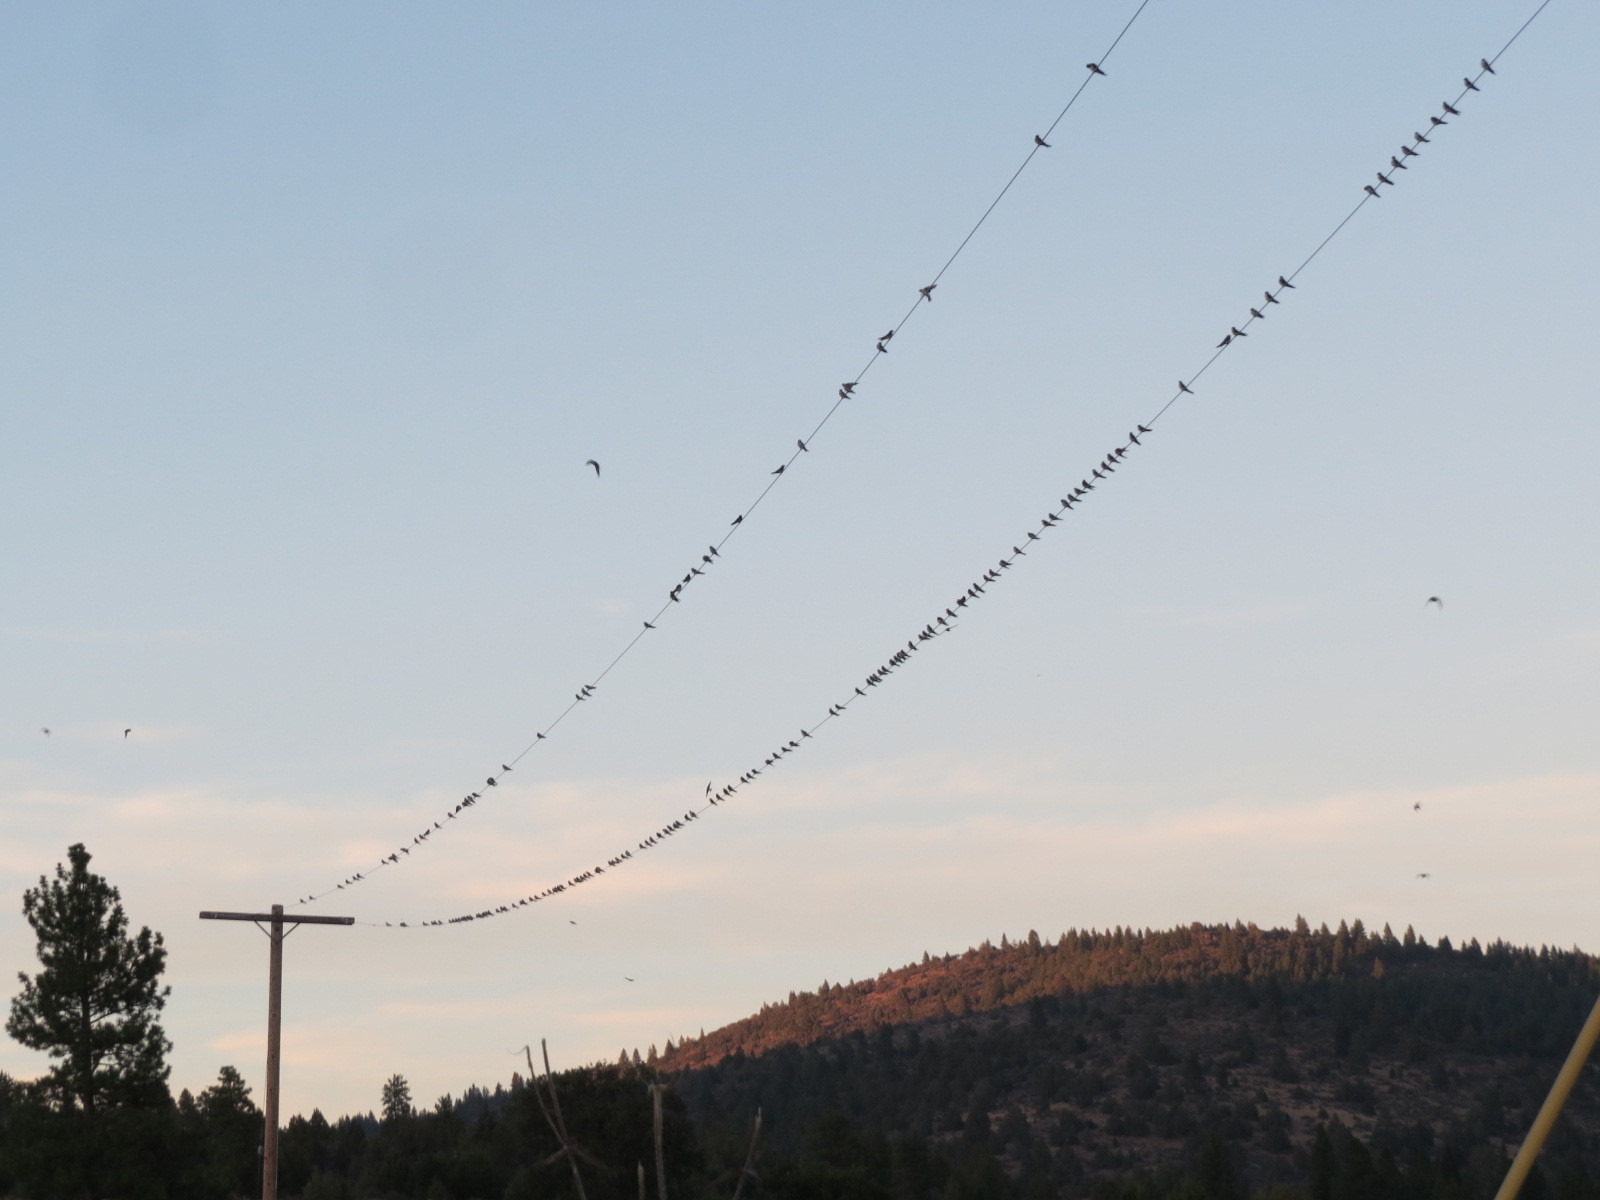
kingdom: Animalia
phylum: Chordata
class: Aves
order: Passeriformes
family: Hirundinidae
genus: Tachycineta
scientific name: Tachycineta thalassina
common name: Violet-green swallow
